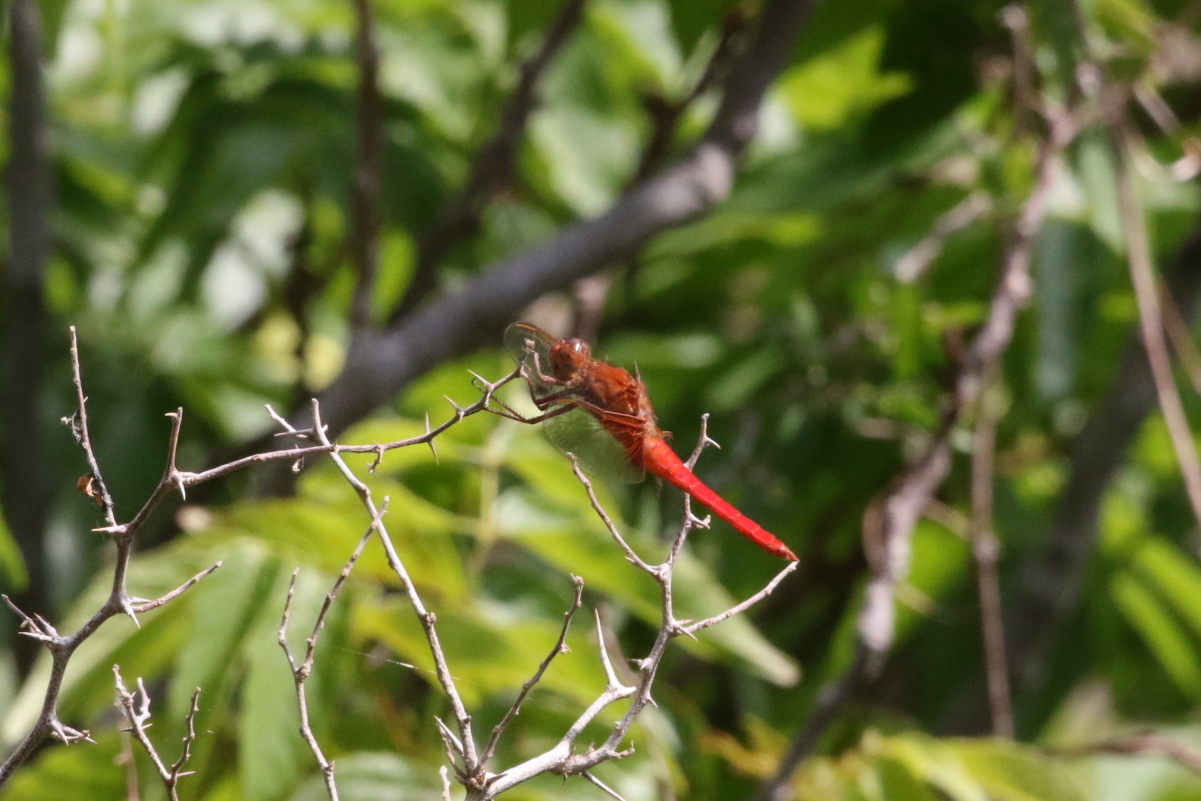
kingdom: Animalia
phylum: Arthropoda
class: Insecta
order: Odonata
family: Libellulidae
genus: Libellula
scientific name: Libellula croceipennis
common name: Neon skimmer
